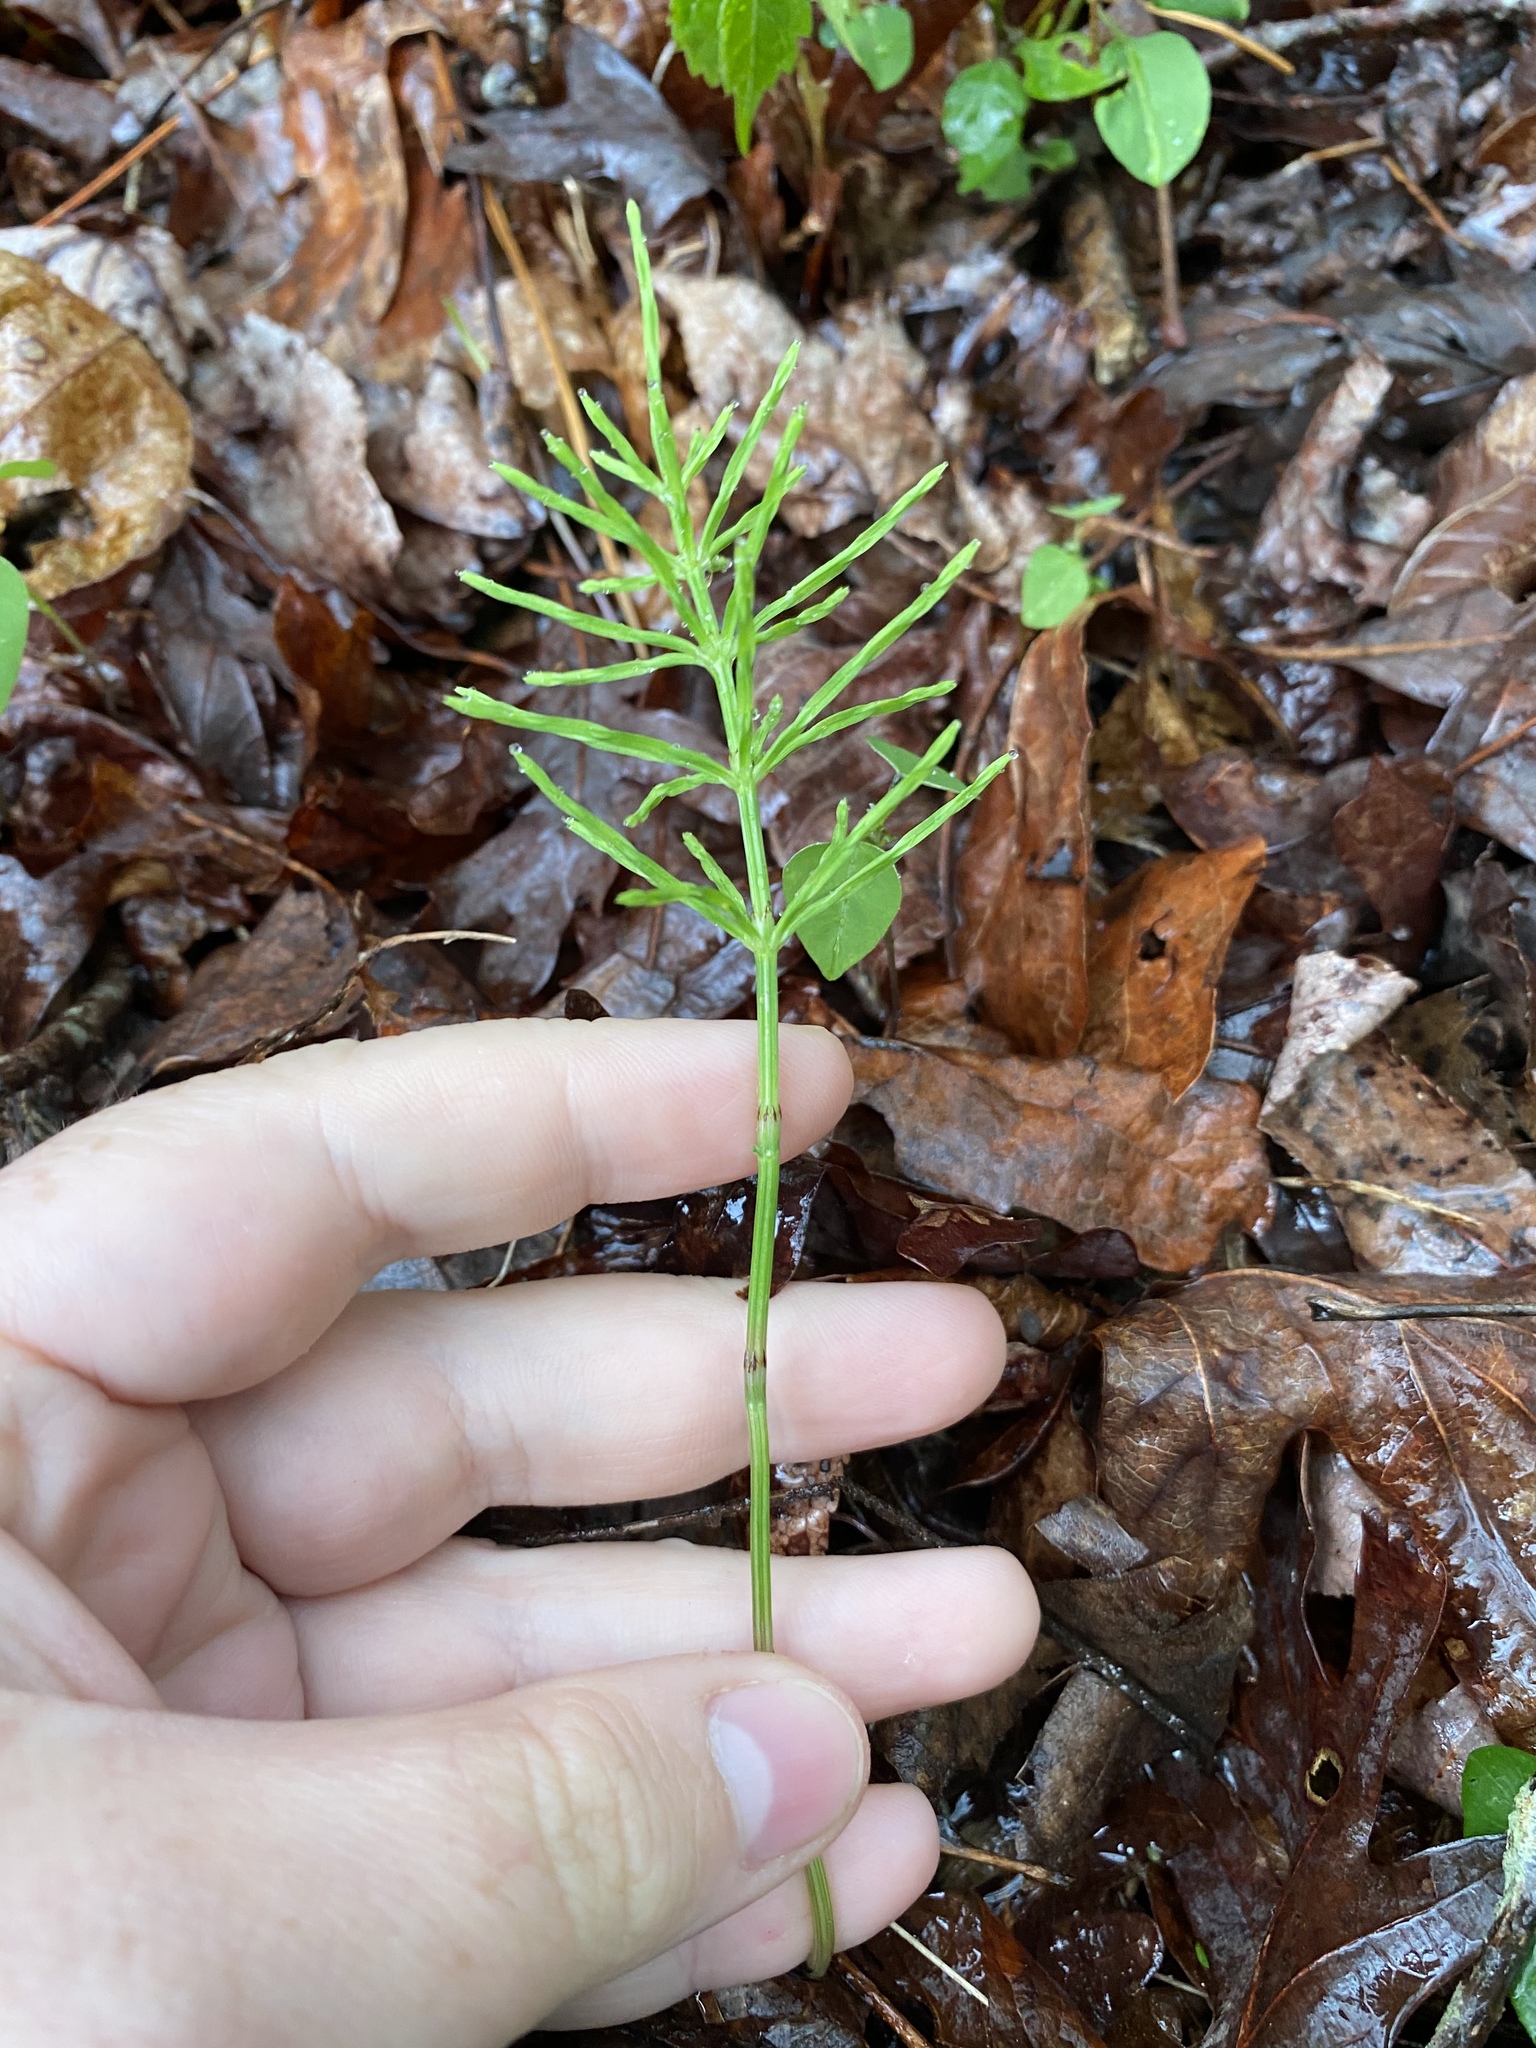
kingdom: Plantae
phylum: Tracheophyta
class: Polypodiopsida
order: Equisetales
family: Equisetaceae
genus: Equisetum
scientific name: Equisetum arvense
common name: Field horsetail
